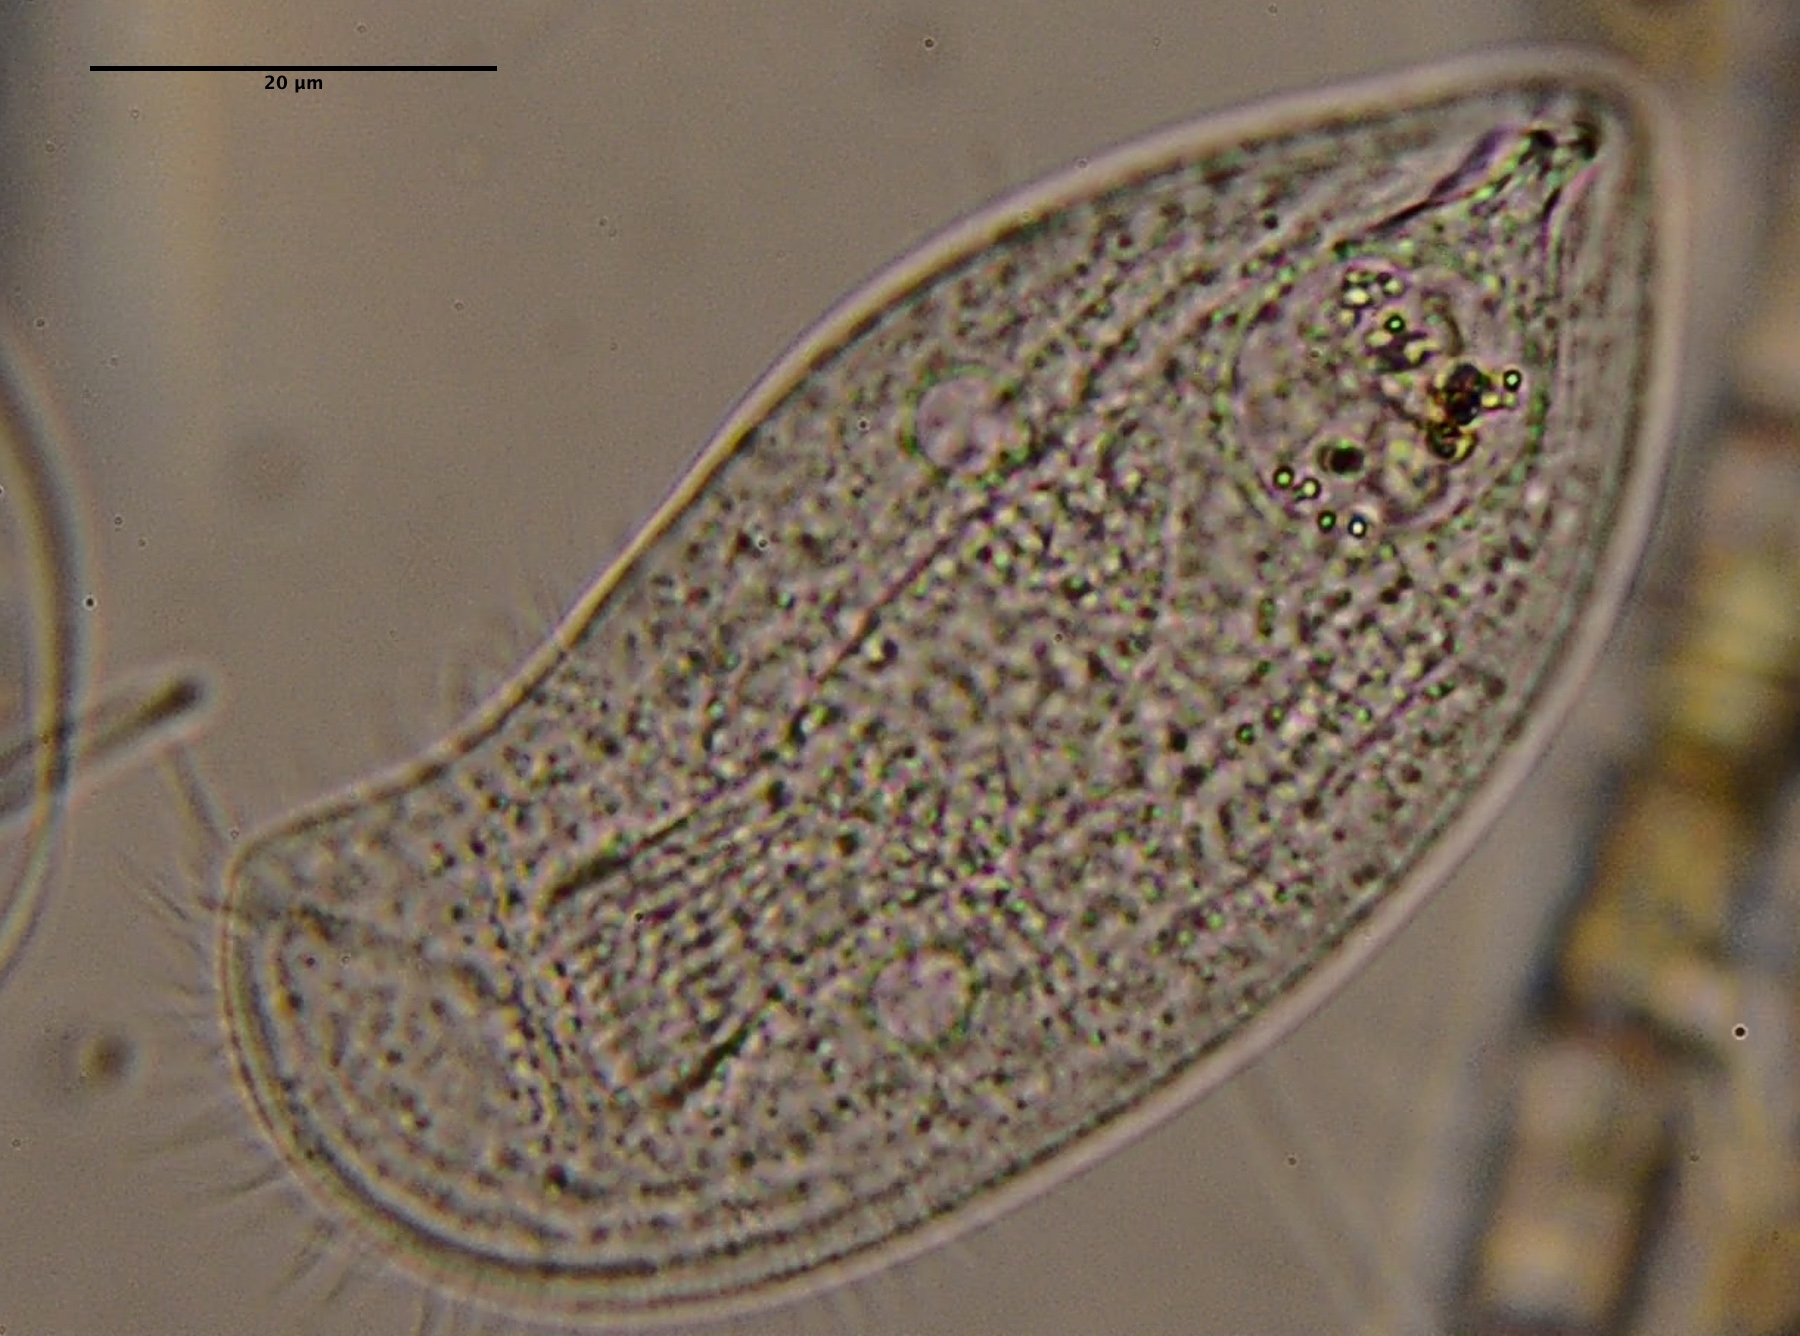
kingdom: Chromista
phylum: Ciliophora
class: Cyrtophoria
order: Cyrtophorida
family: Chilodonellidae
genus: Pseudochilodonopsis
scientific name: Pseudochilodonopsis piscatoris
